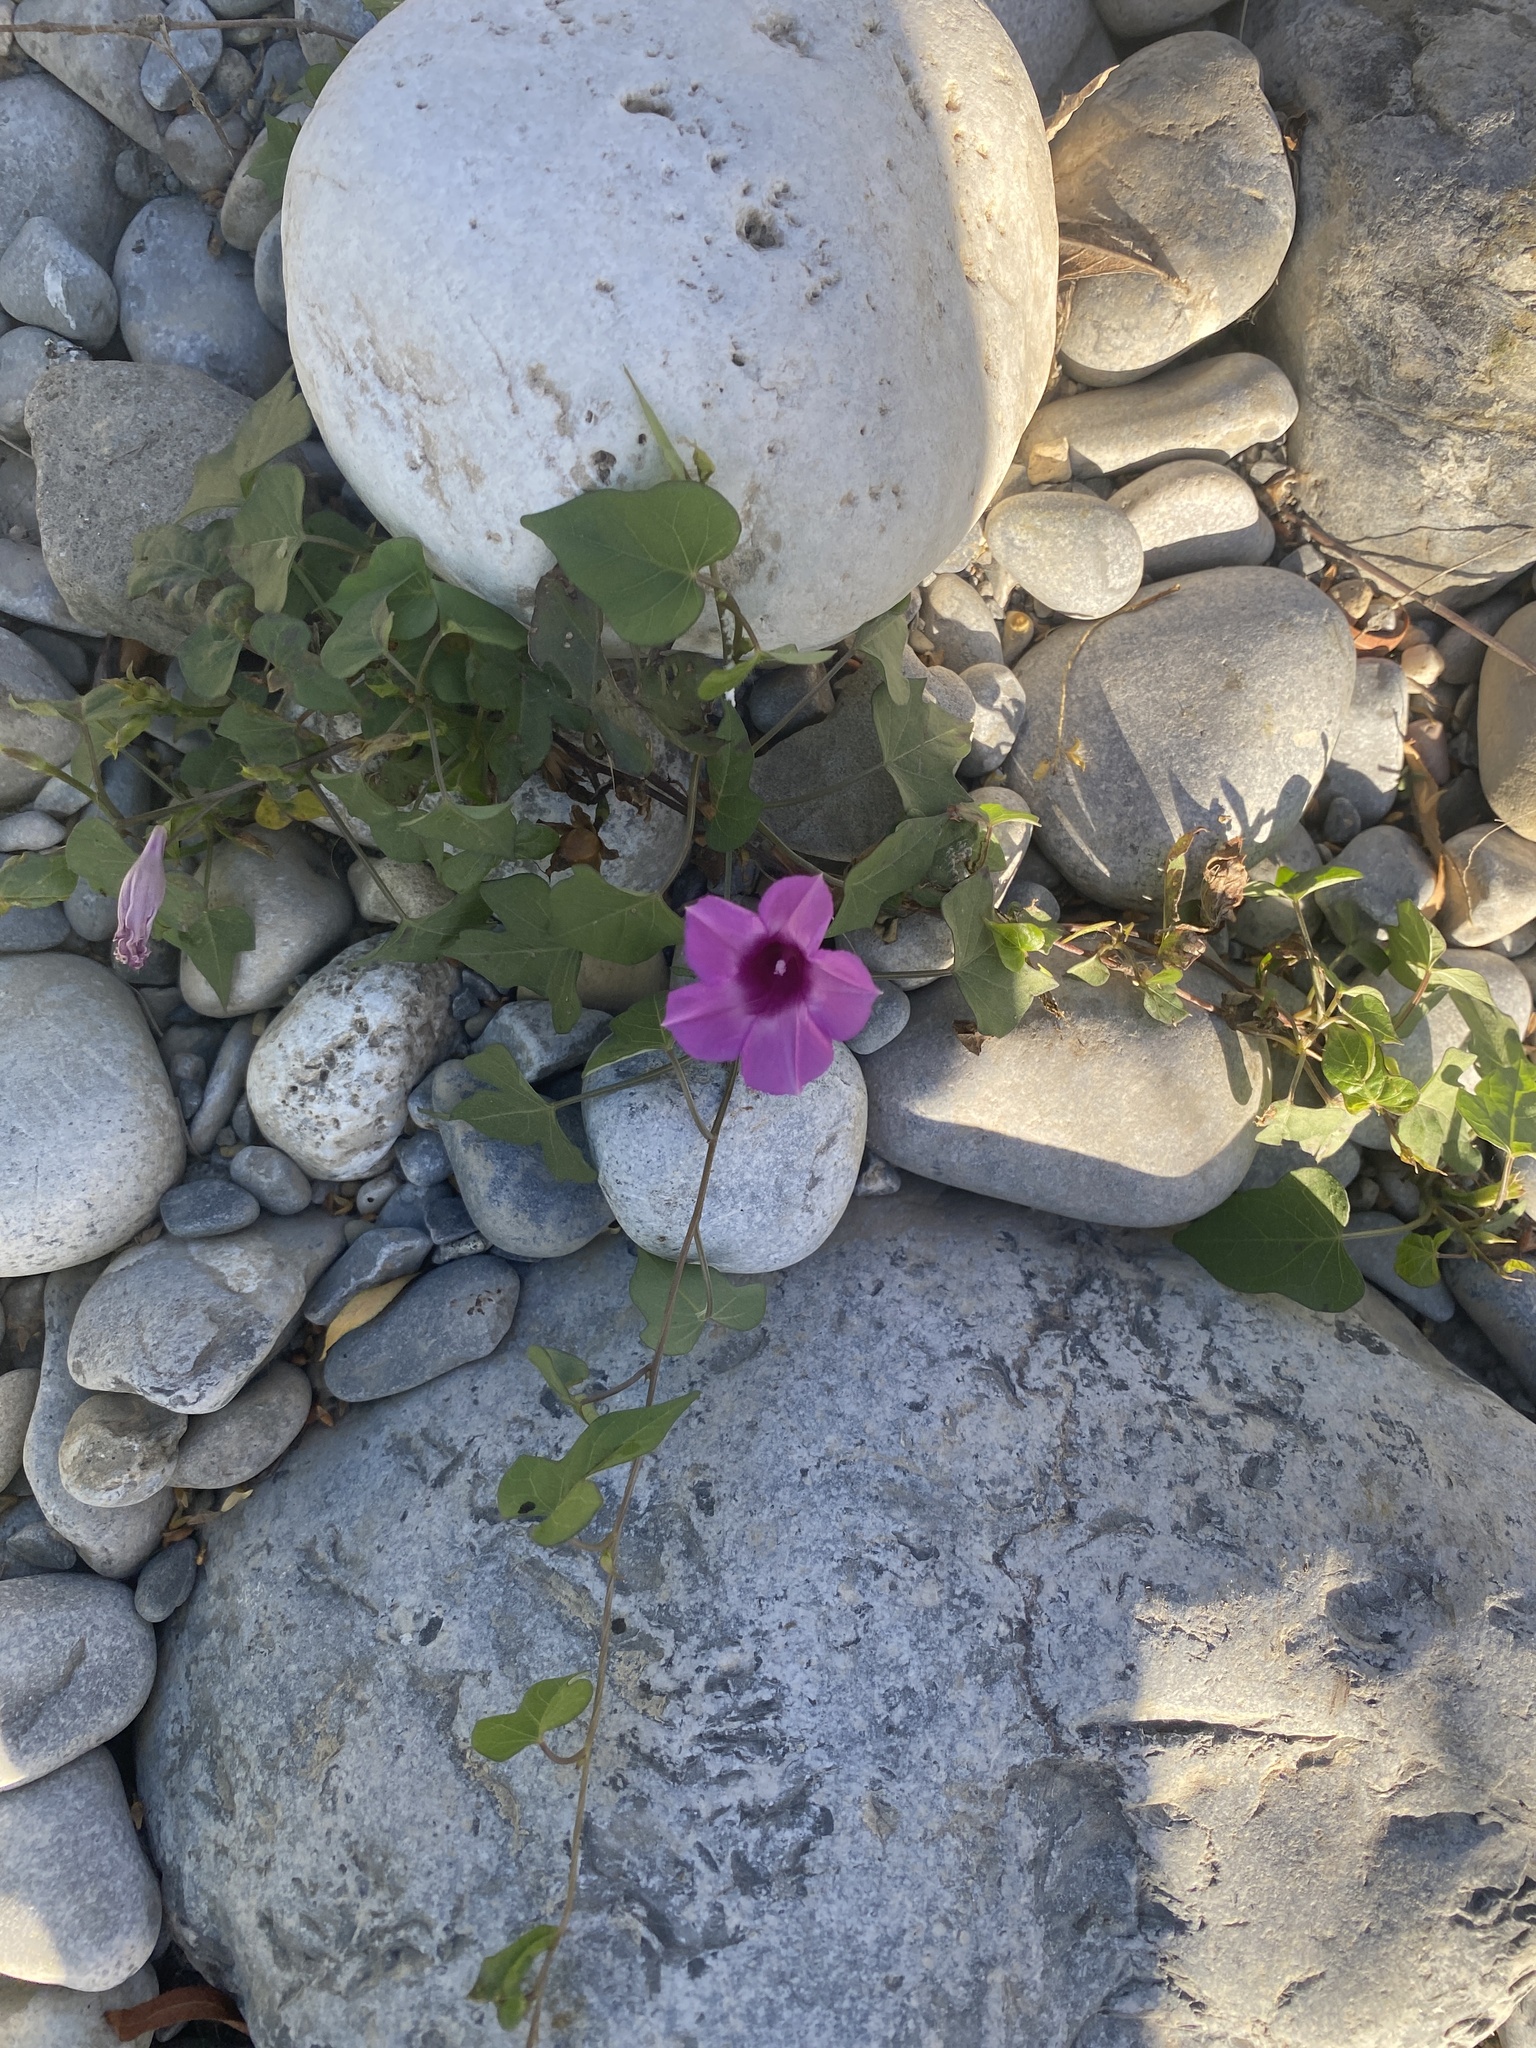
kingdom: Plantae
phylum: Tracheophyta
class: Magnoliopsida
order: Solanales
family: Convolvulaceae
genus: Ipomoea
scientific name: Ipomoea cordatotriloba
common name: Cotton morning glory
